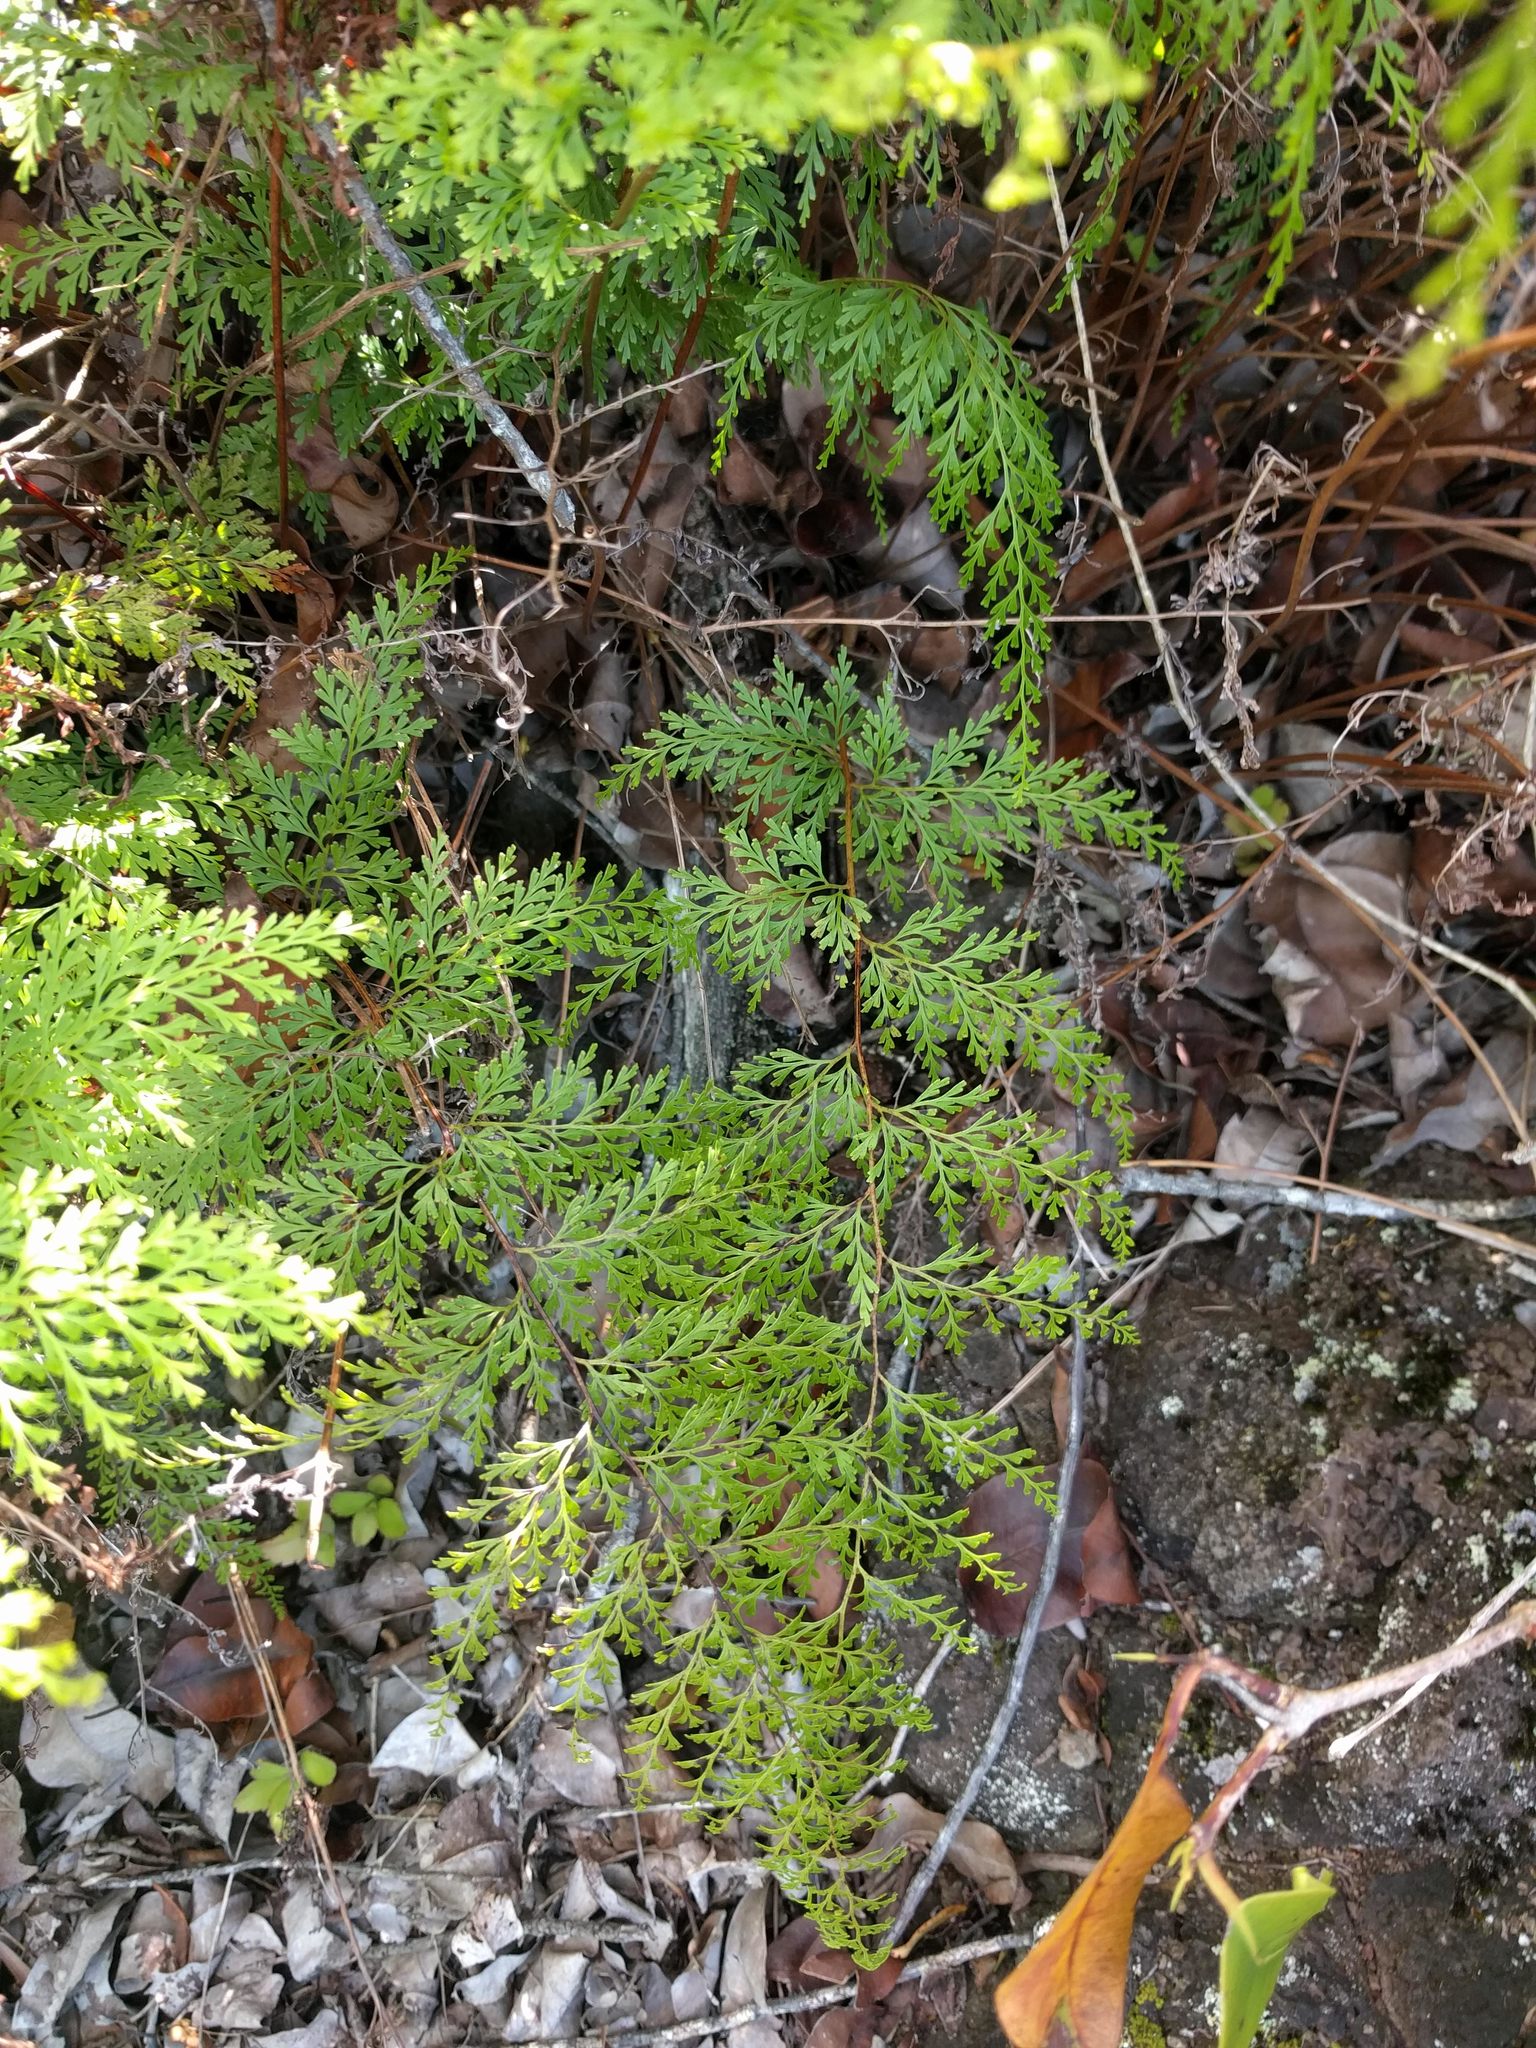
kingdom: Plantae
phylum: Tracheophyta
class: Polypodiopsida
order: Polypodiales
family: Lindsaeaceae
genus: Odontosoria
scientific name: Odontosoria chinensis
